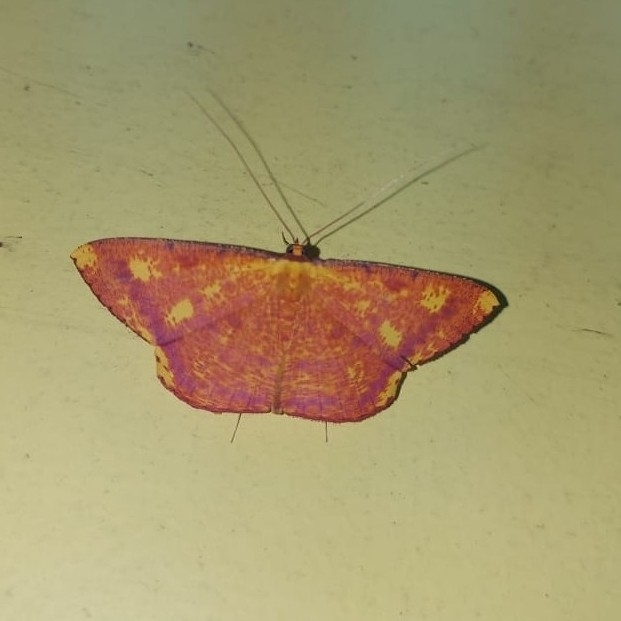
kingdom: Animalia
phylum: Arthropoda
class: Insecta
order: Lepidoptera
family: Geometridae
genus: Eumelea
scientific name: Eumelea ludovicata
